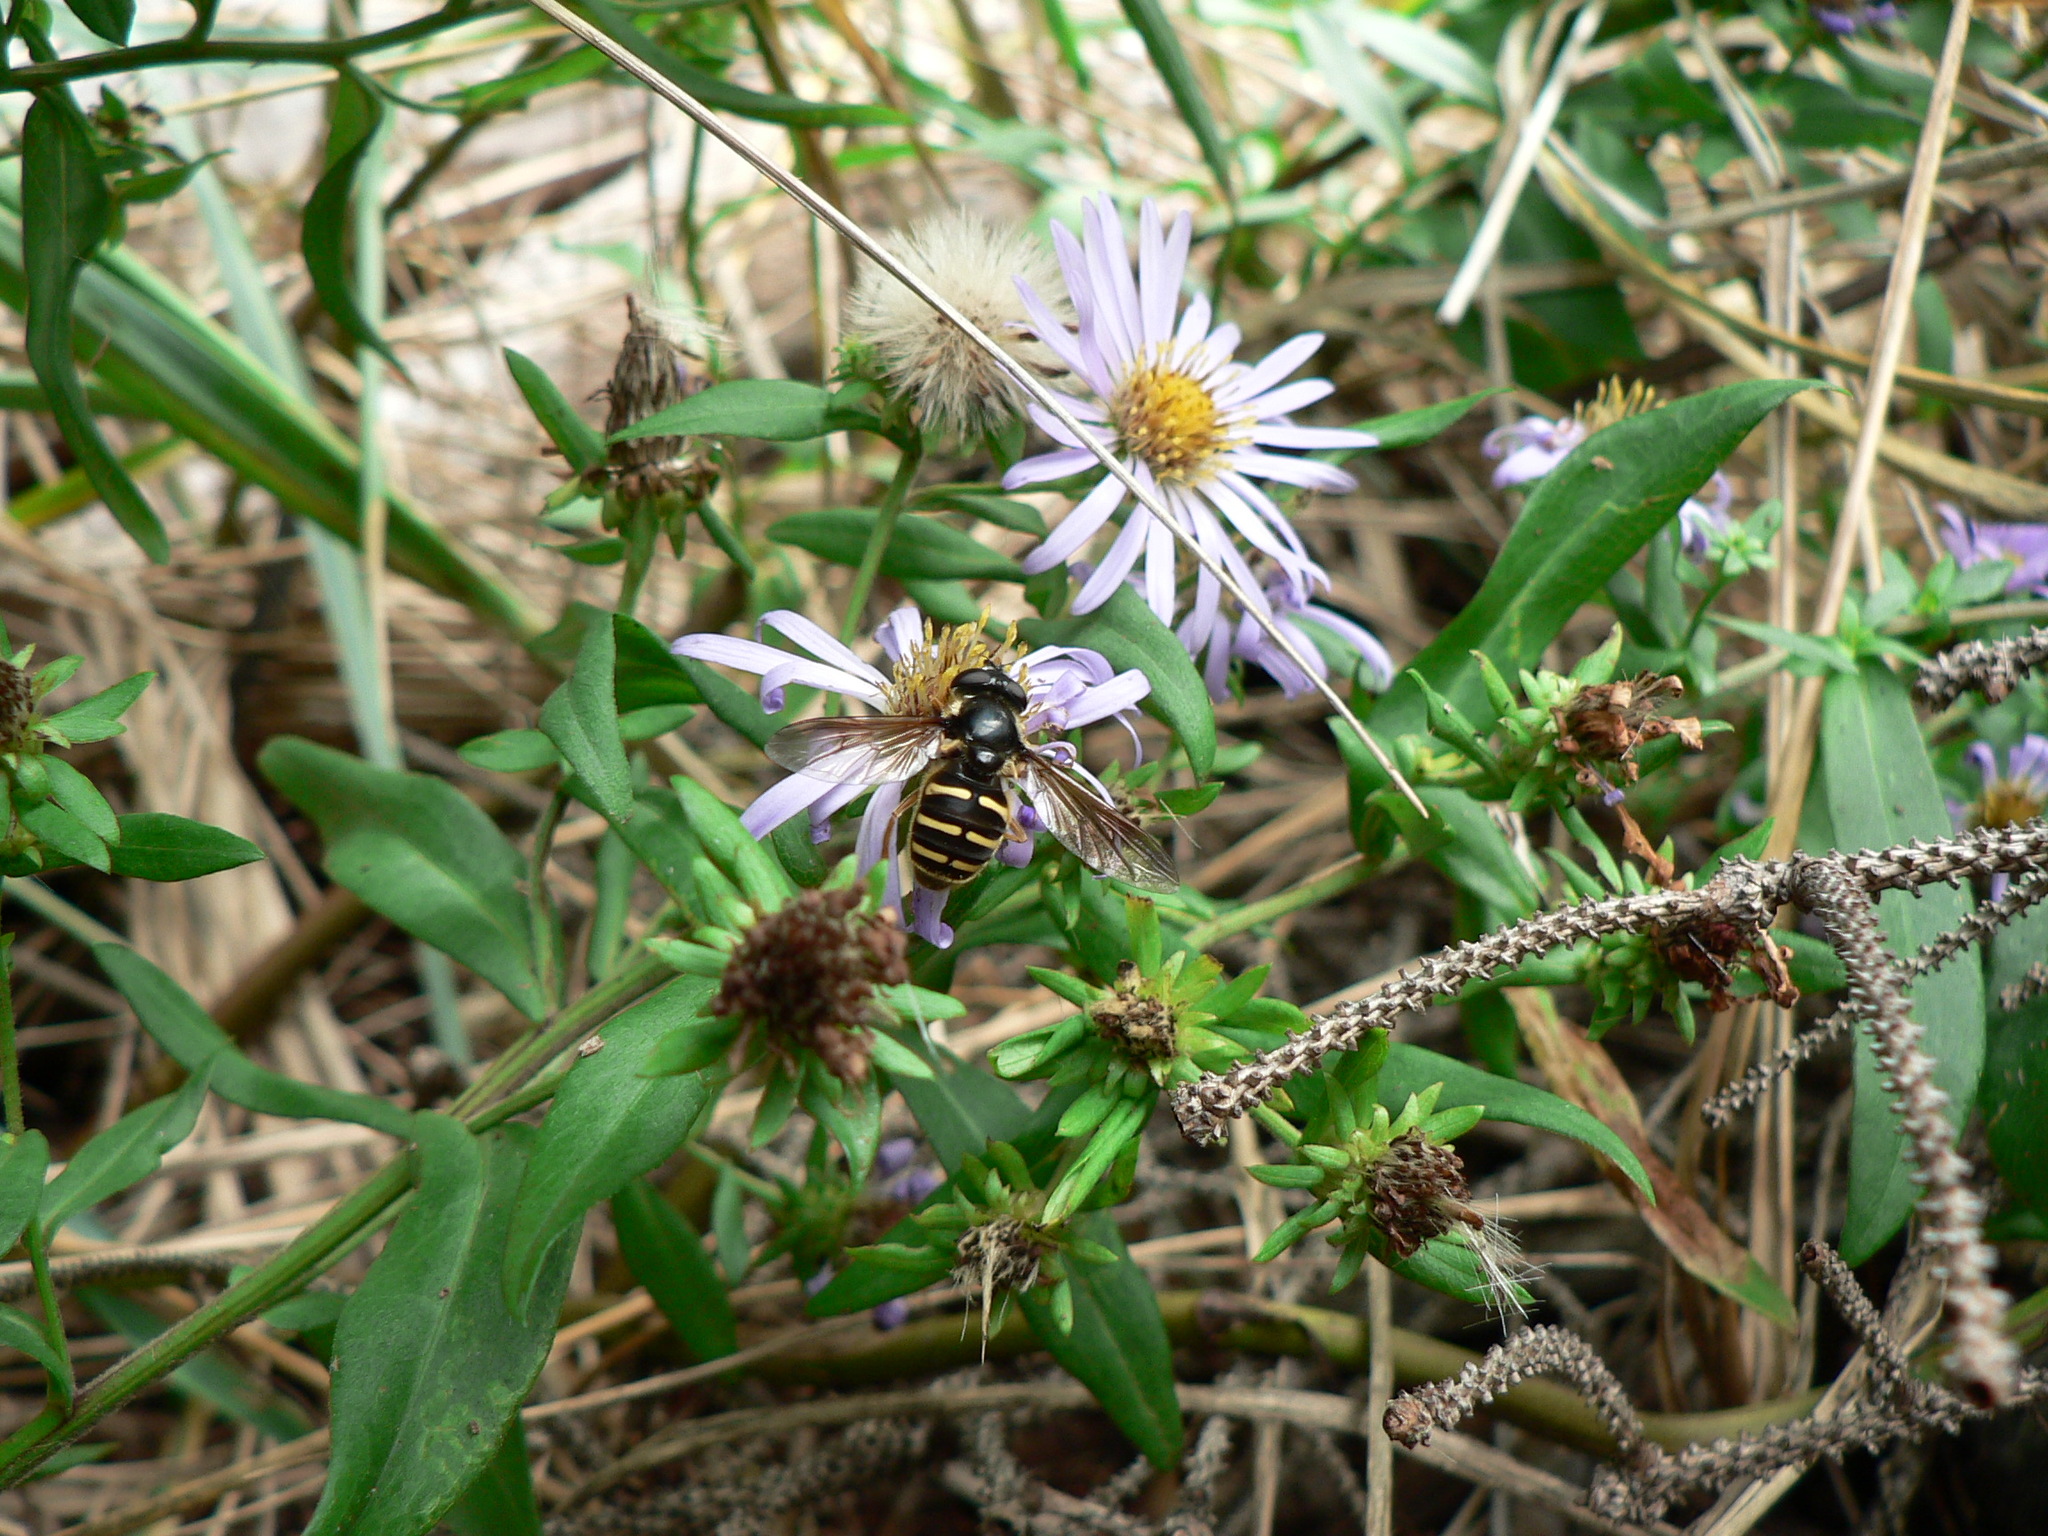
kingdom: Animalia
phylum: Arthropoda
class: Insecta
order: Diptera
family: Syrphidae
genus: Sericomyia
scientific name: Sericomyia chalcopyga
